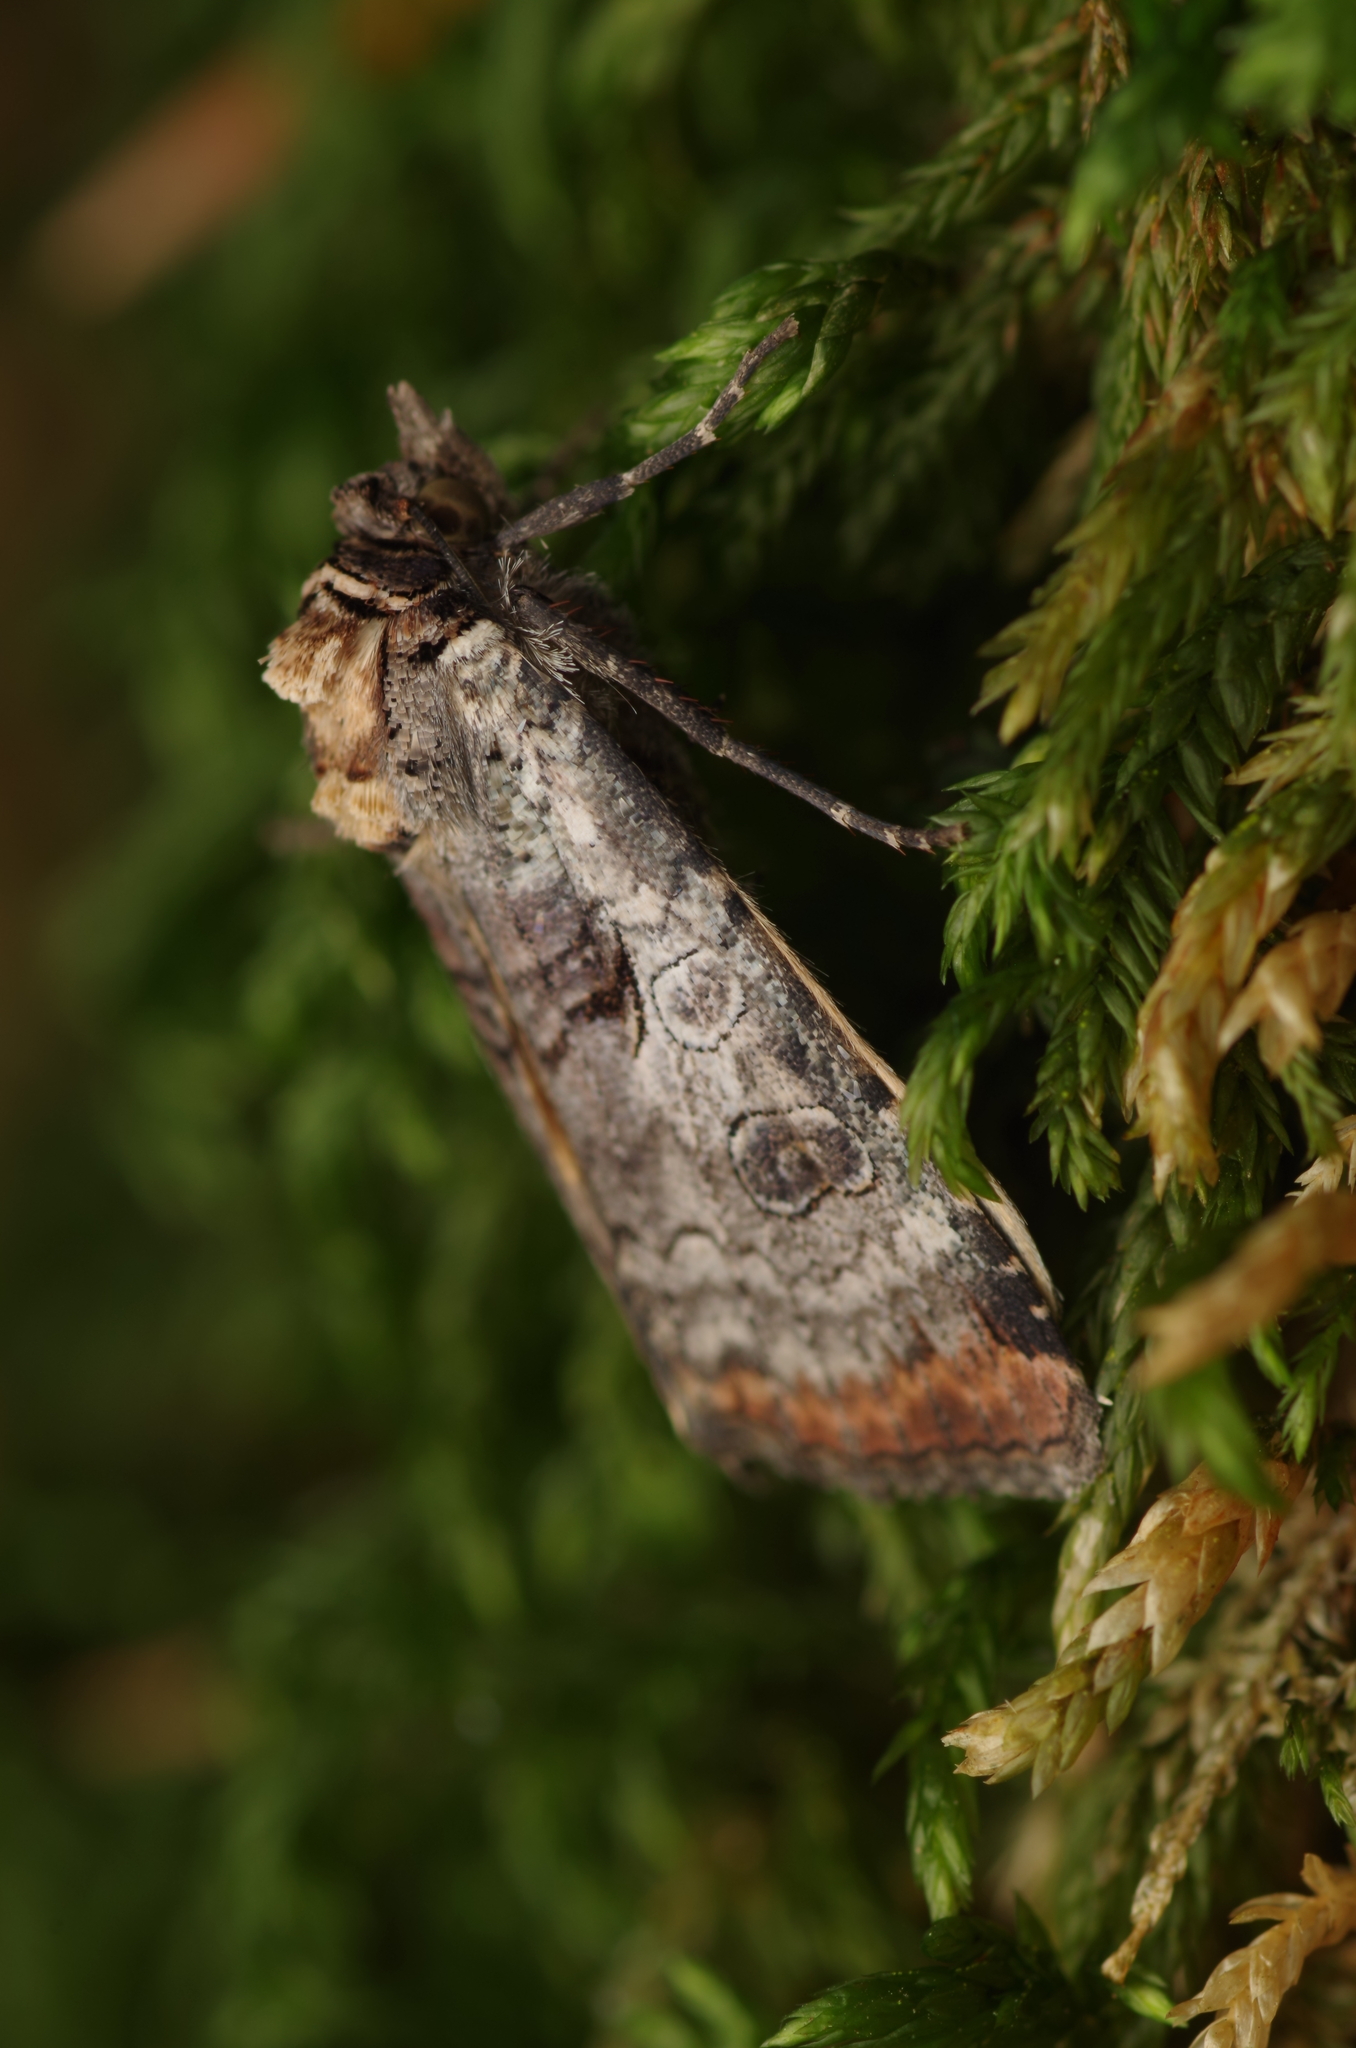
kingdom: Animalia
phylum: Arthropoda
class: Insecta
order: Lepidoptera
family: Noctuidae
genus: Epilecta
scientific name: Epilecta linogrisea
